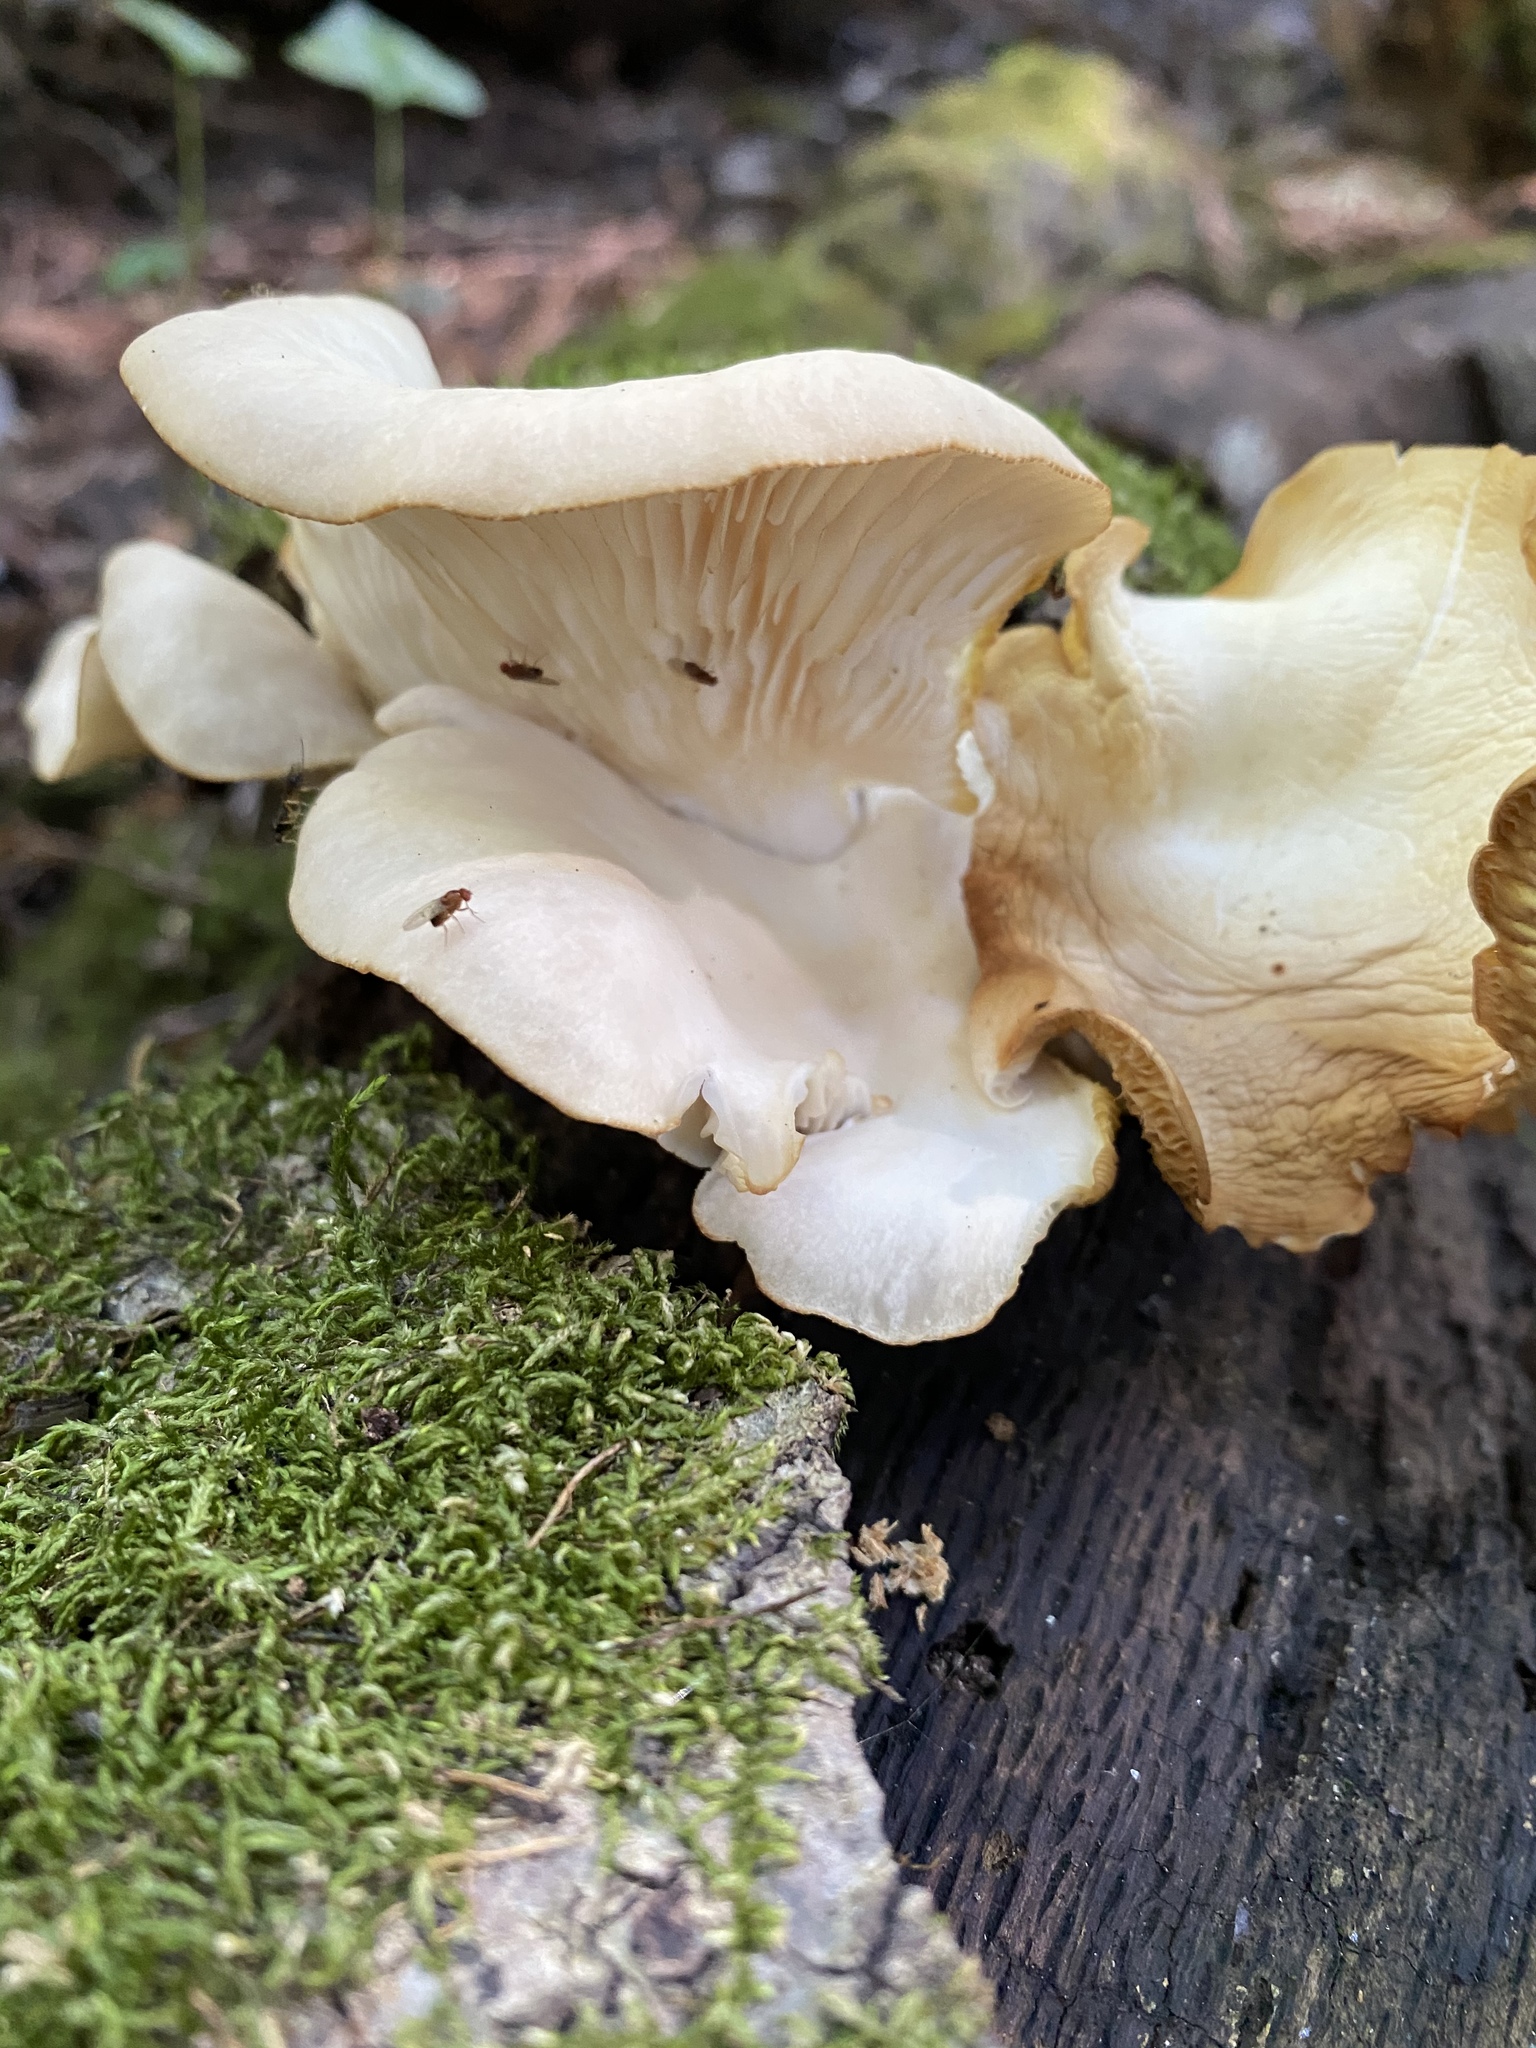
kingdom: Fungi
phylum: Basidiomycota
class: Agaricomycetes
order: Agaricales
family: Pleurotaceae
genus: Pleurotus
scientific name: Pleurotus pulmonarius
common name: Pale oyster
